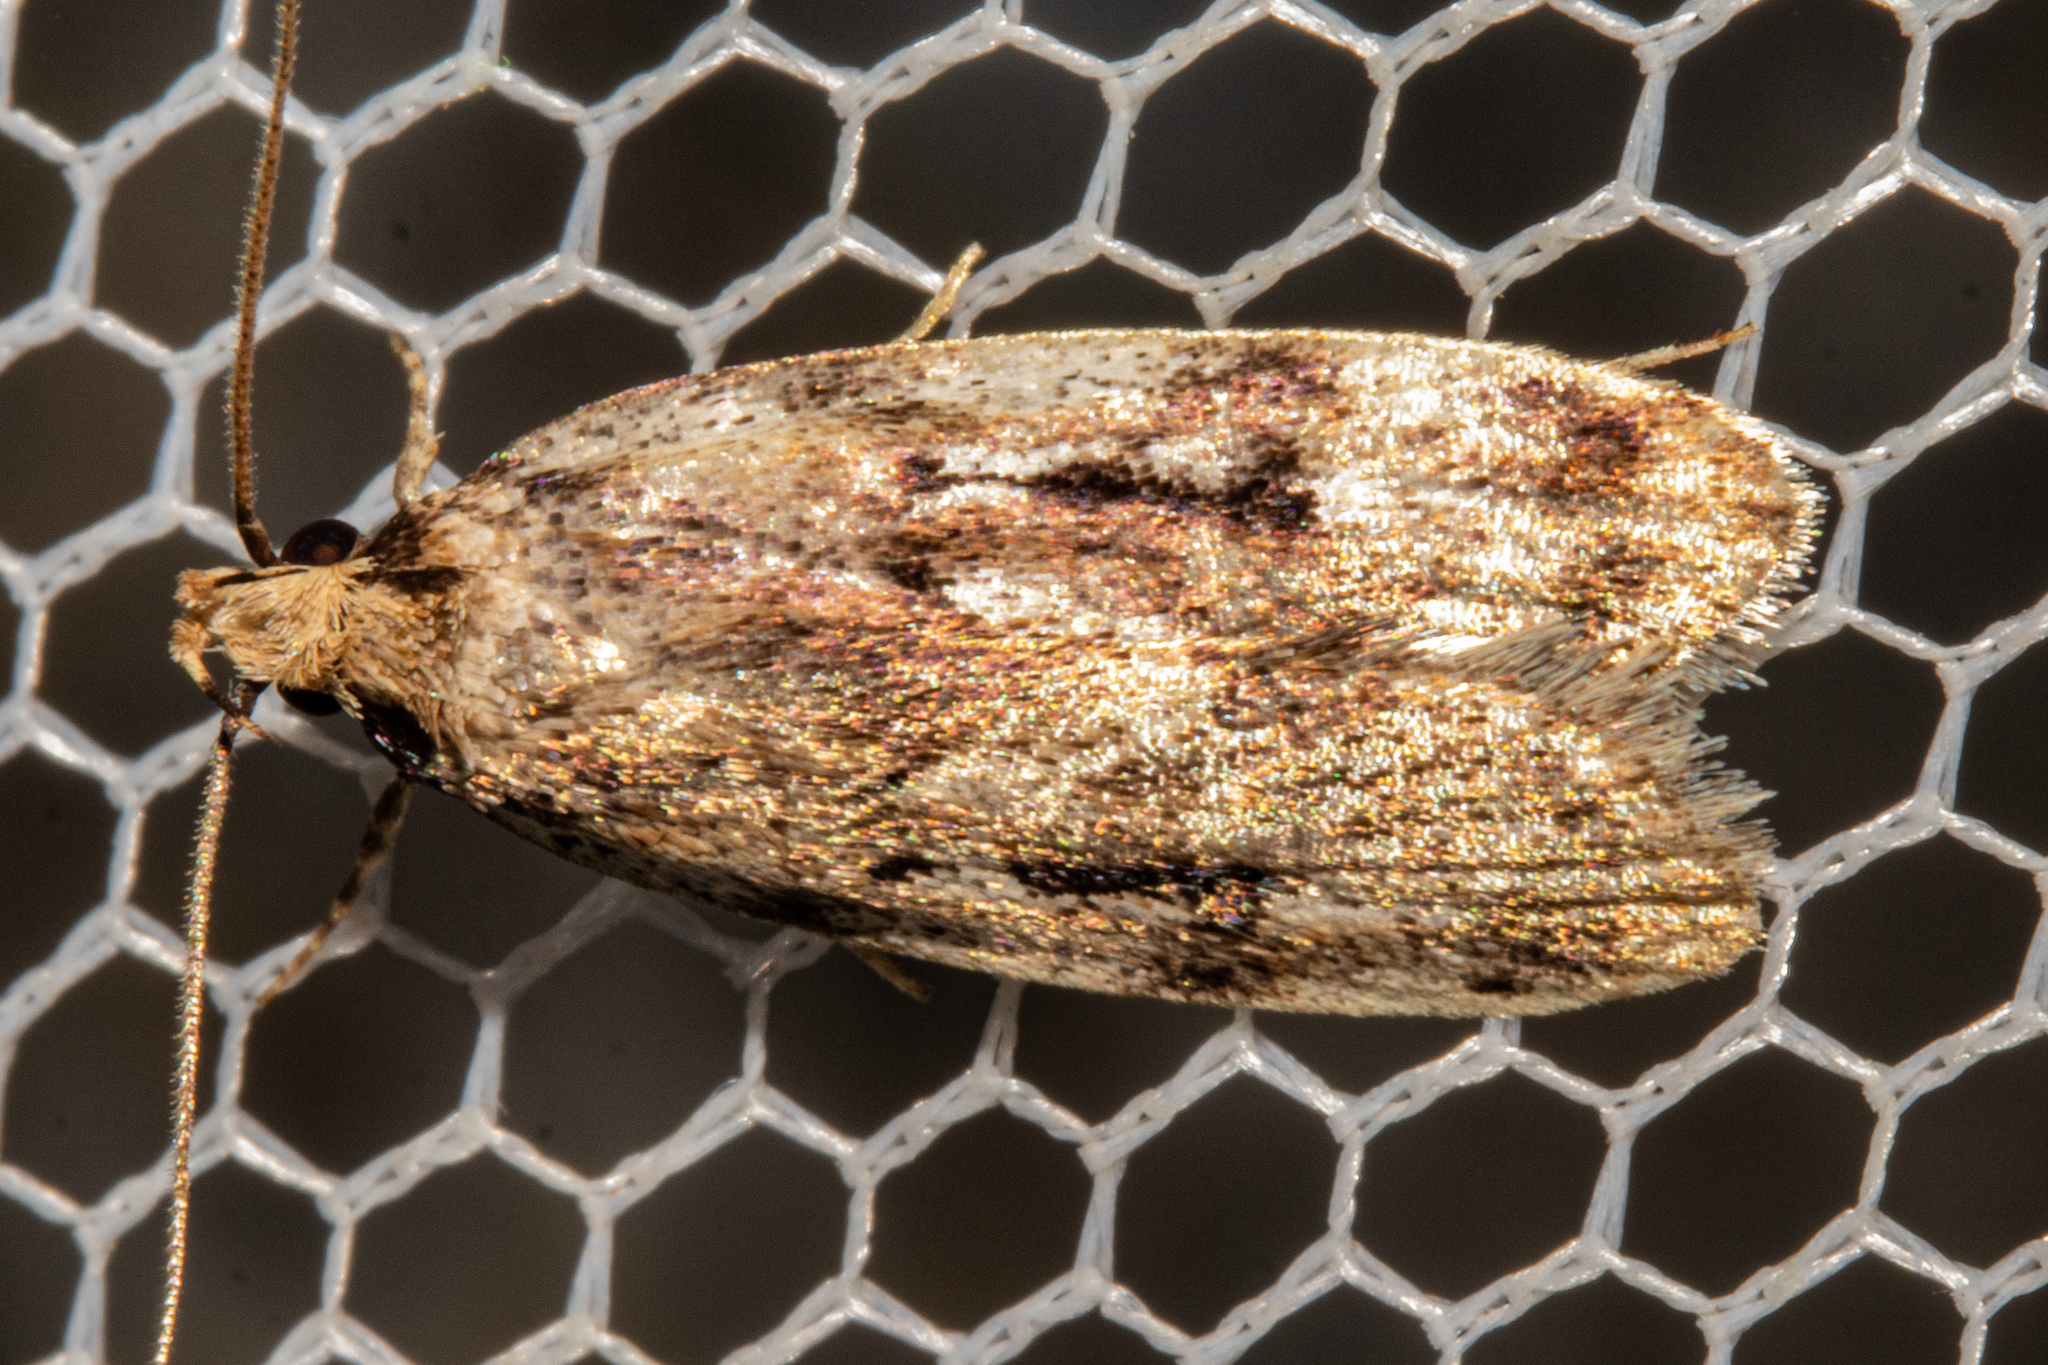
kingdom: Animalia
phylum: Arthropoda
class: Insecta
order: Lepidoptera
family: Oecophoridae
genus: Barea
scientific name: Barea exarcha
